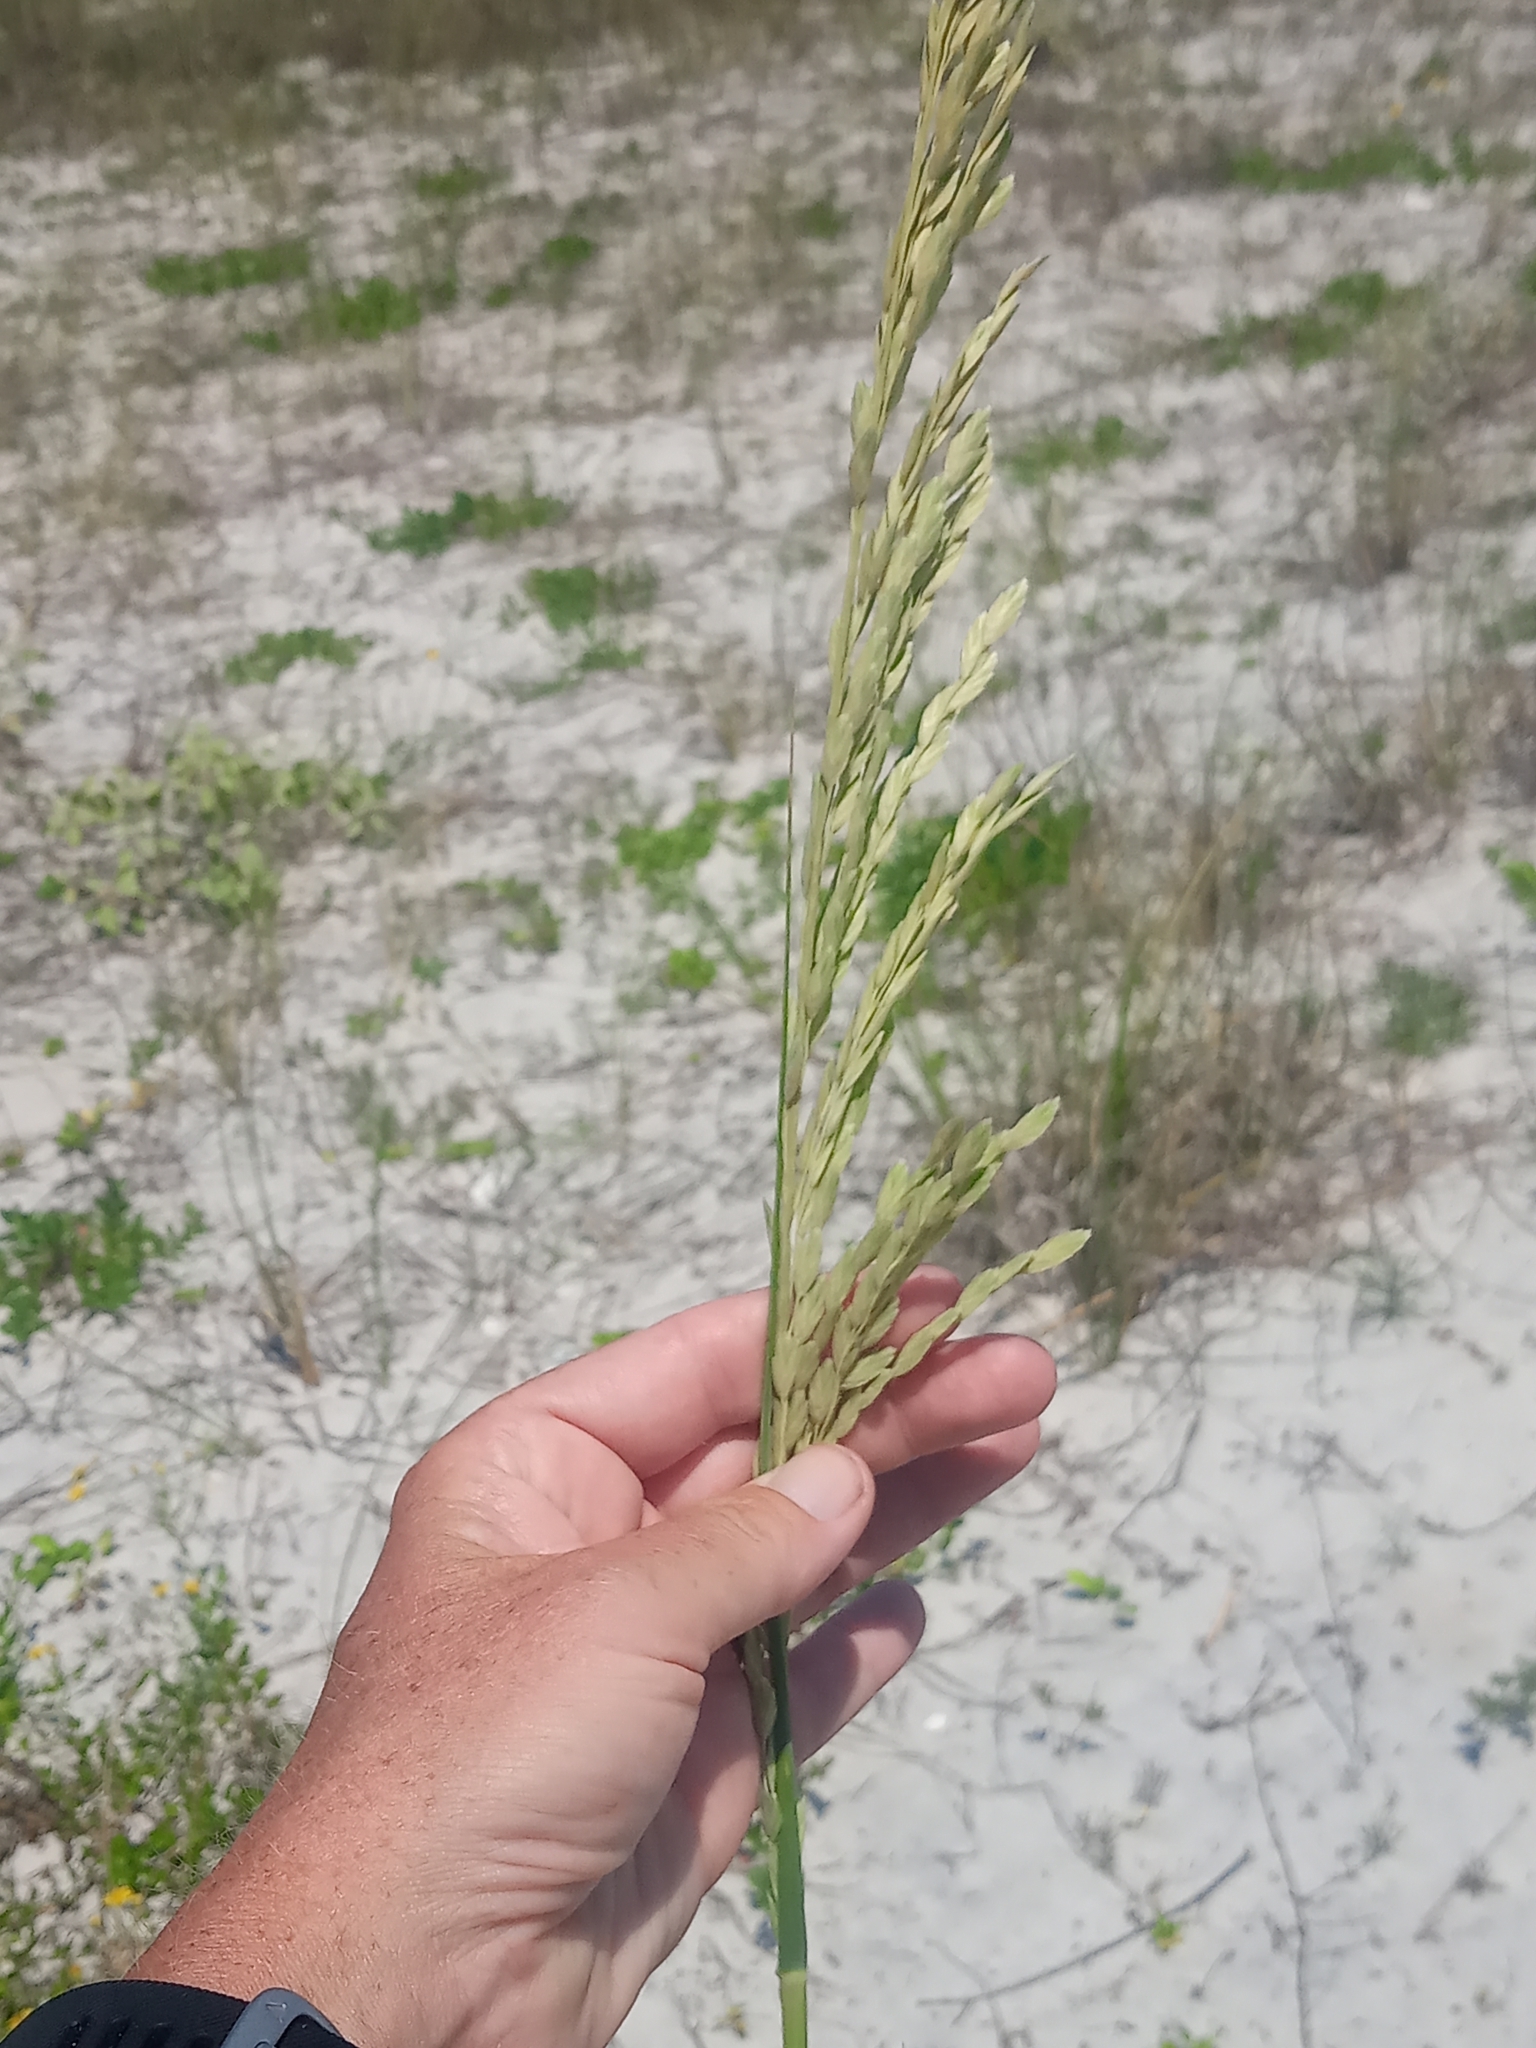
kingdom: Plantae
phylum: Tracheophyta
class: Liliopsida
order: Poales
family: Poaceae
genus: Uniola
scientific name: Uniola paniculata
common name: Seaside-oats
